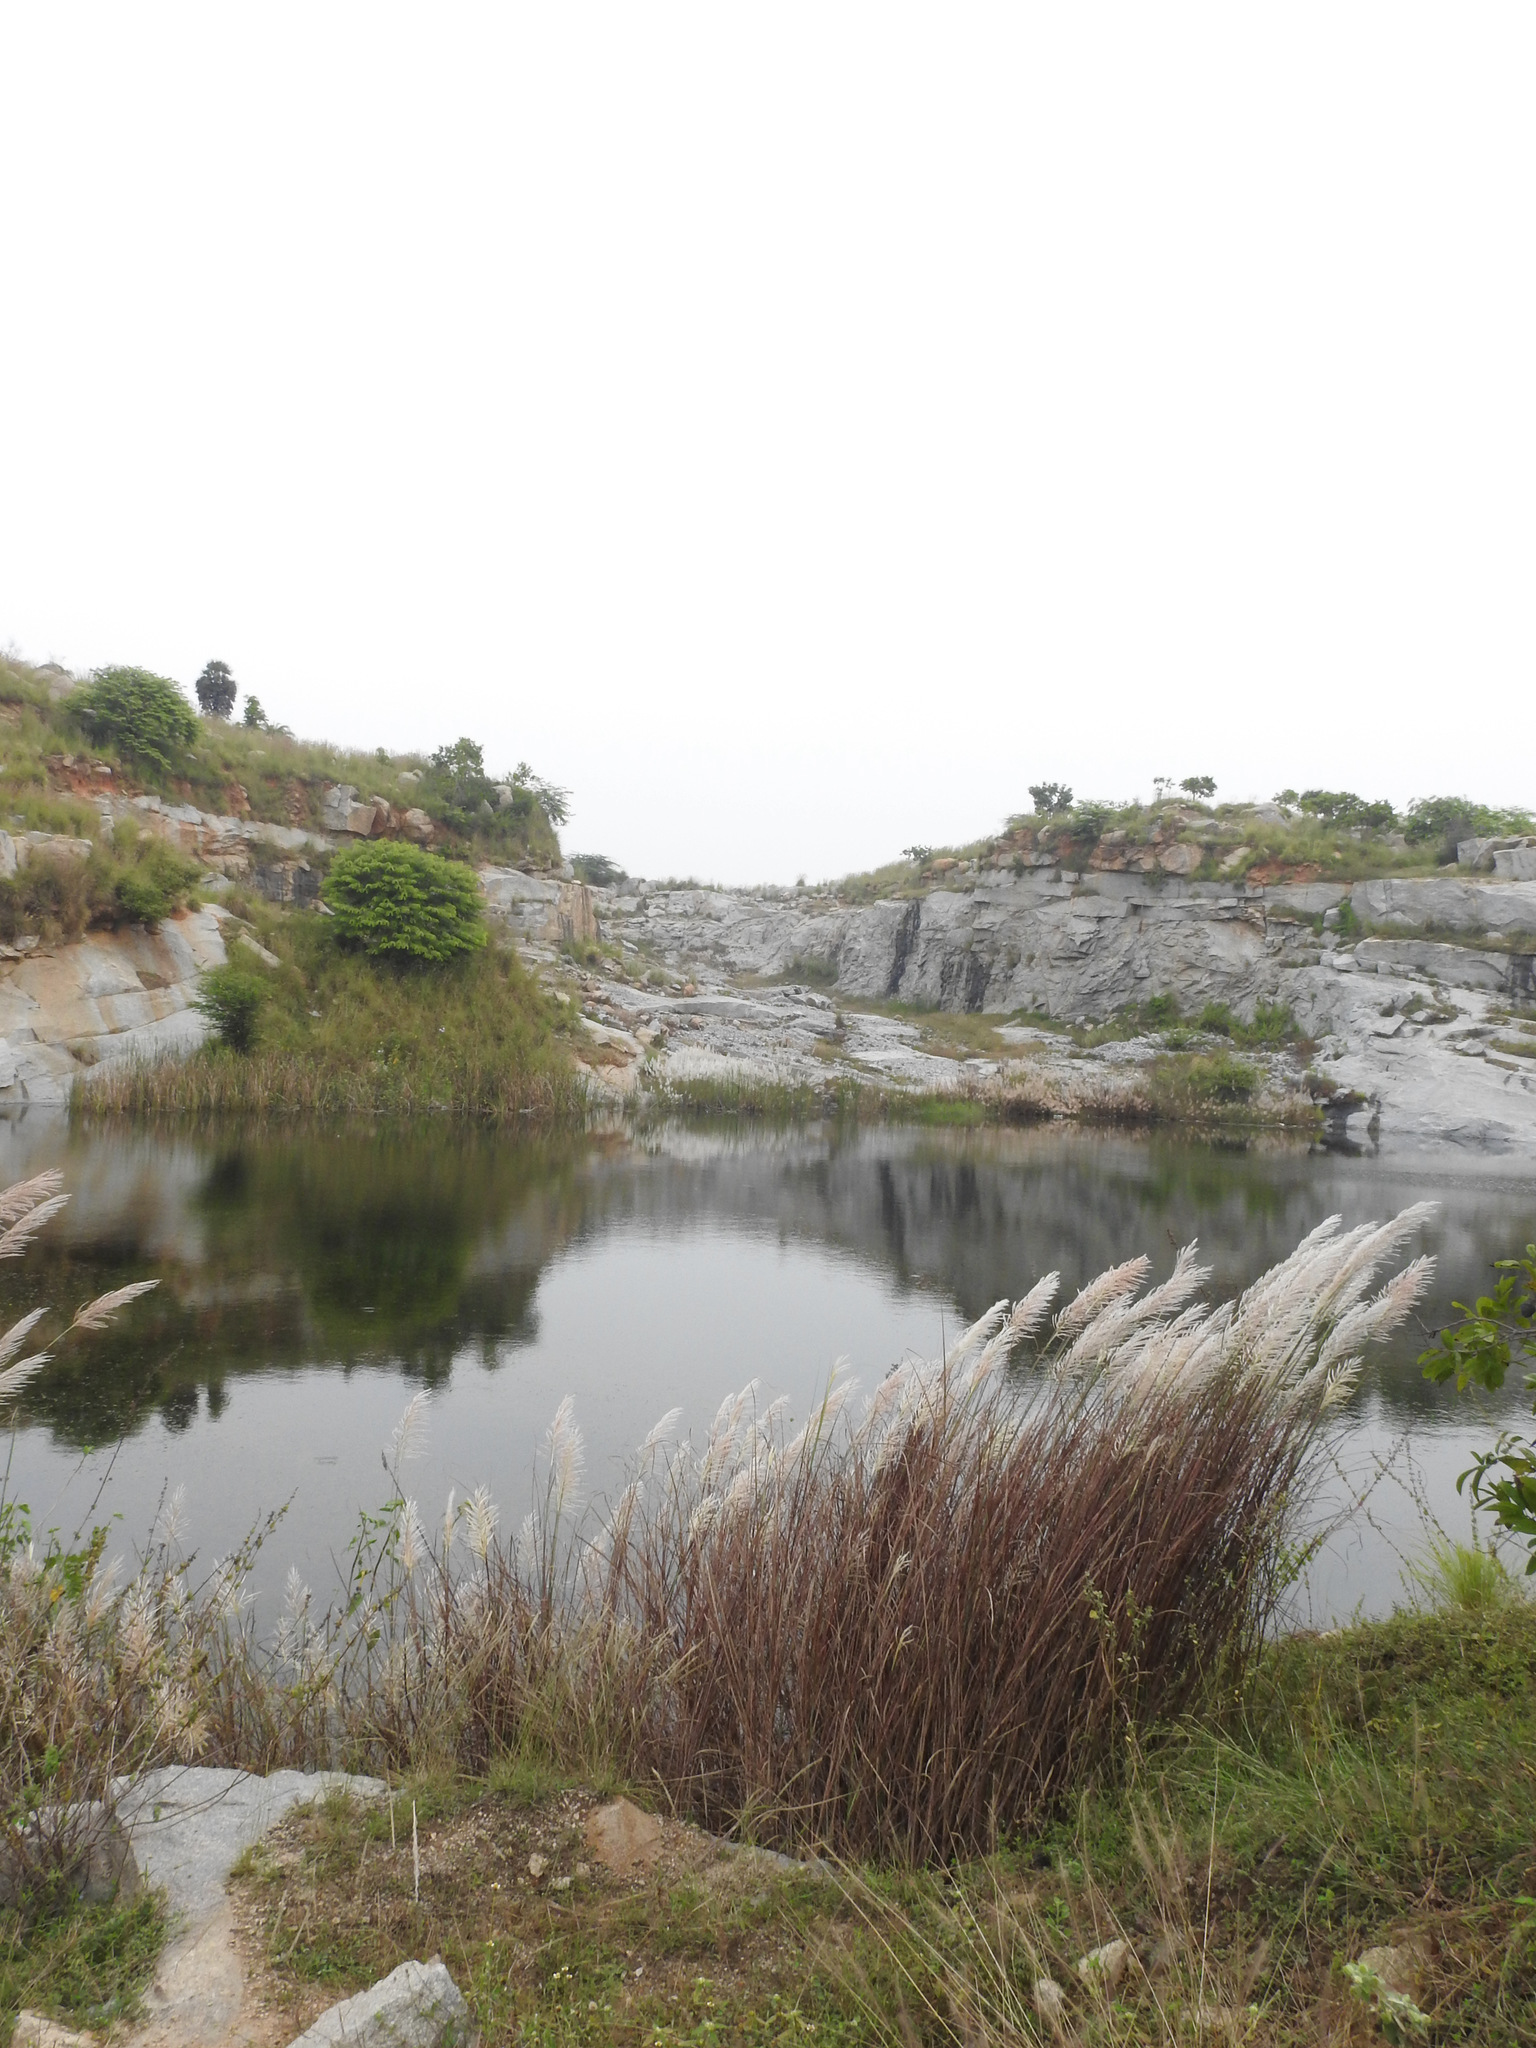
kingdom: Plantae
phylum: Tracheophyta
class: Liliopsida
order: Poales
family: Poaceae
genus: Saccharum
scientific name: Saccharum spontaneum
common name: Wild sugarcane
